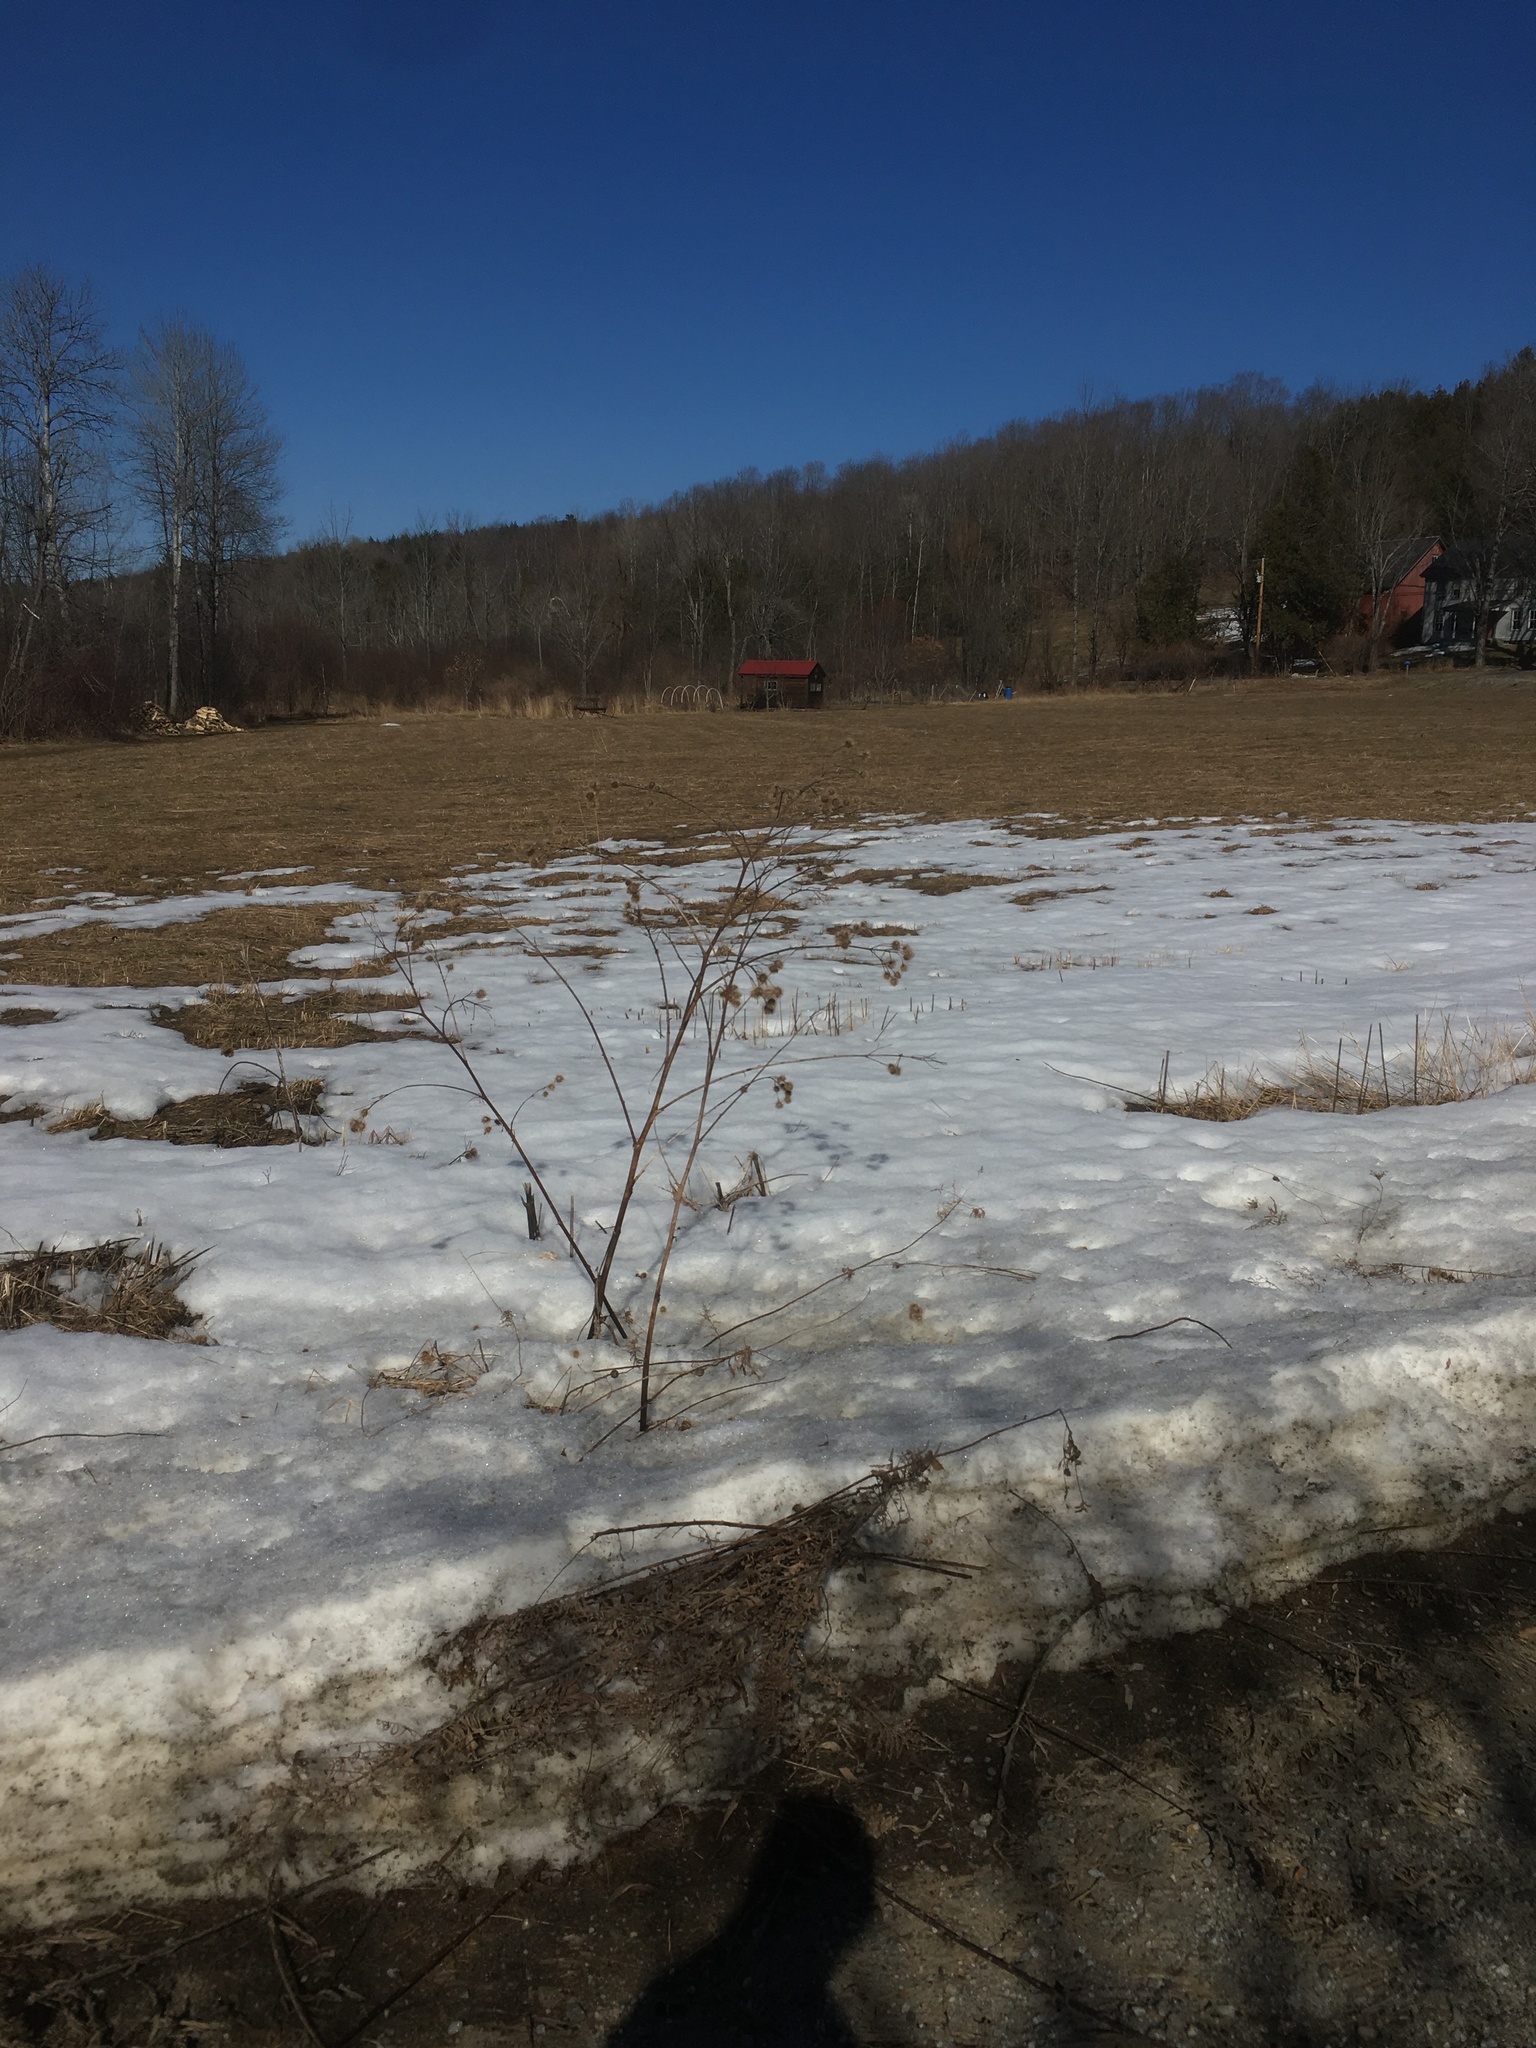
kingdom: Plantae
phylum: Tracheophyta
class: Magnoliopsida
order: Asterales
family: Asteraceae
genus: Arctium
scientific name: Arctium lappa
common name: Greater burdock
